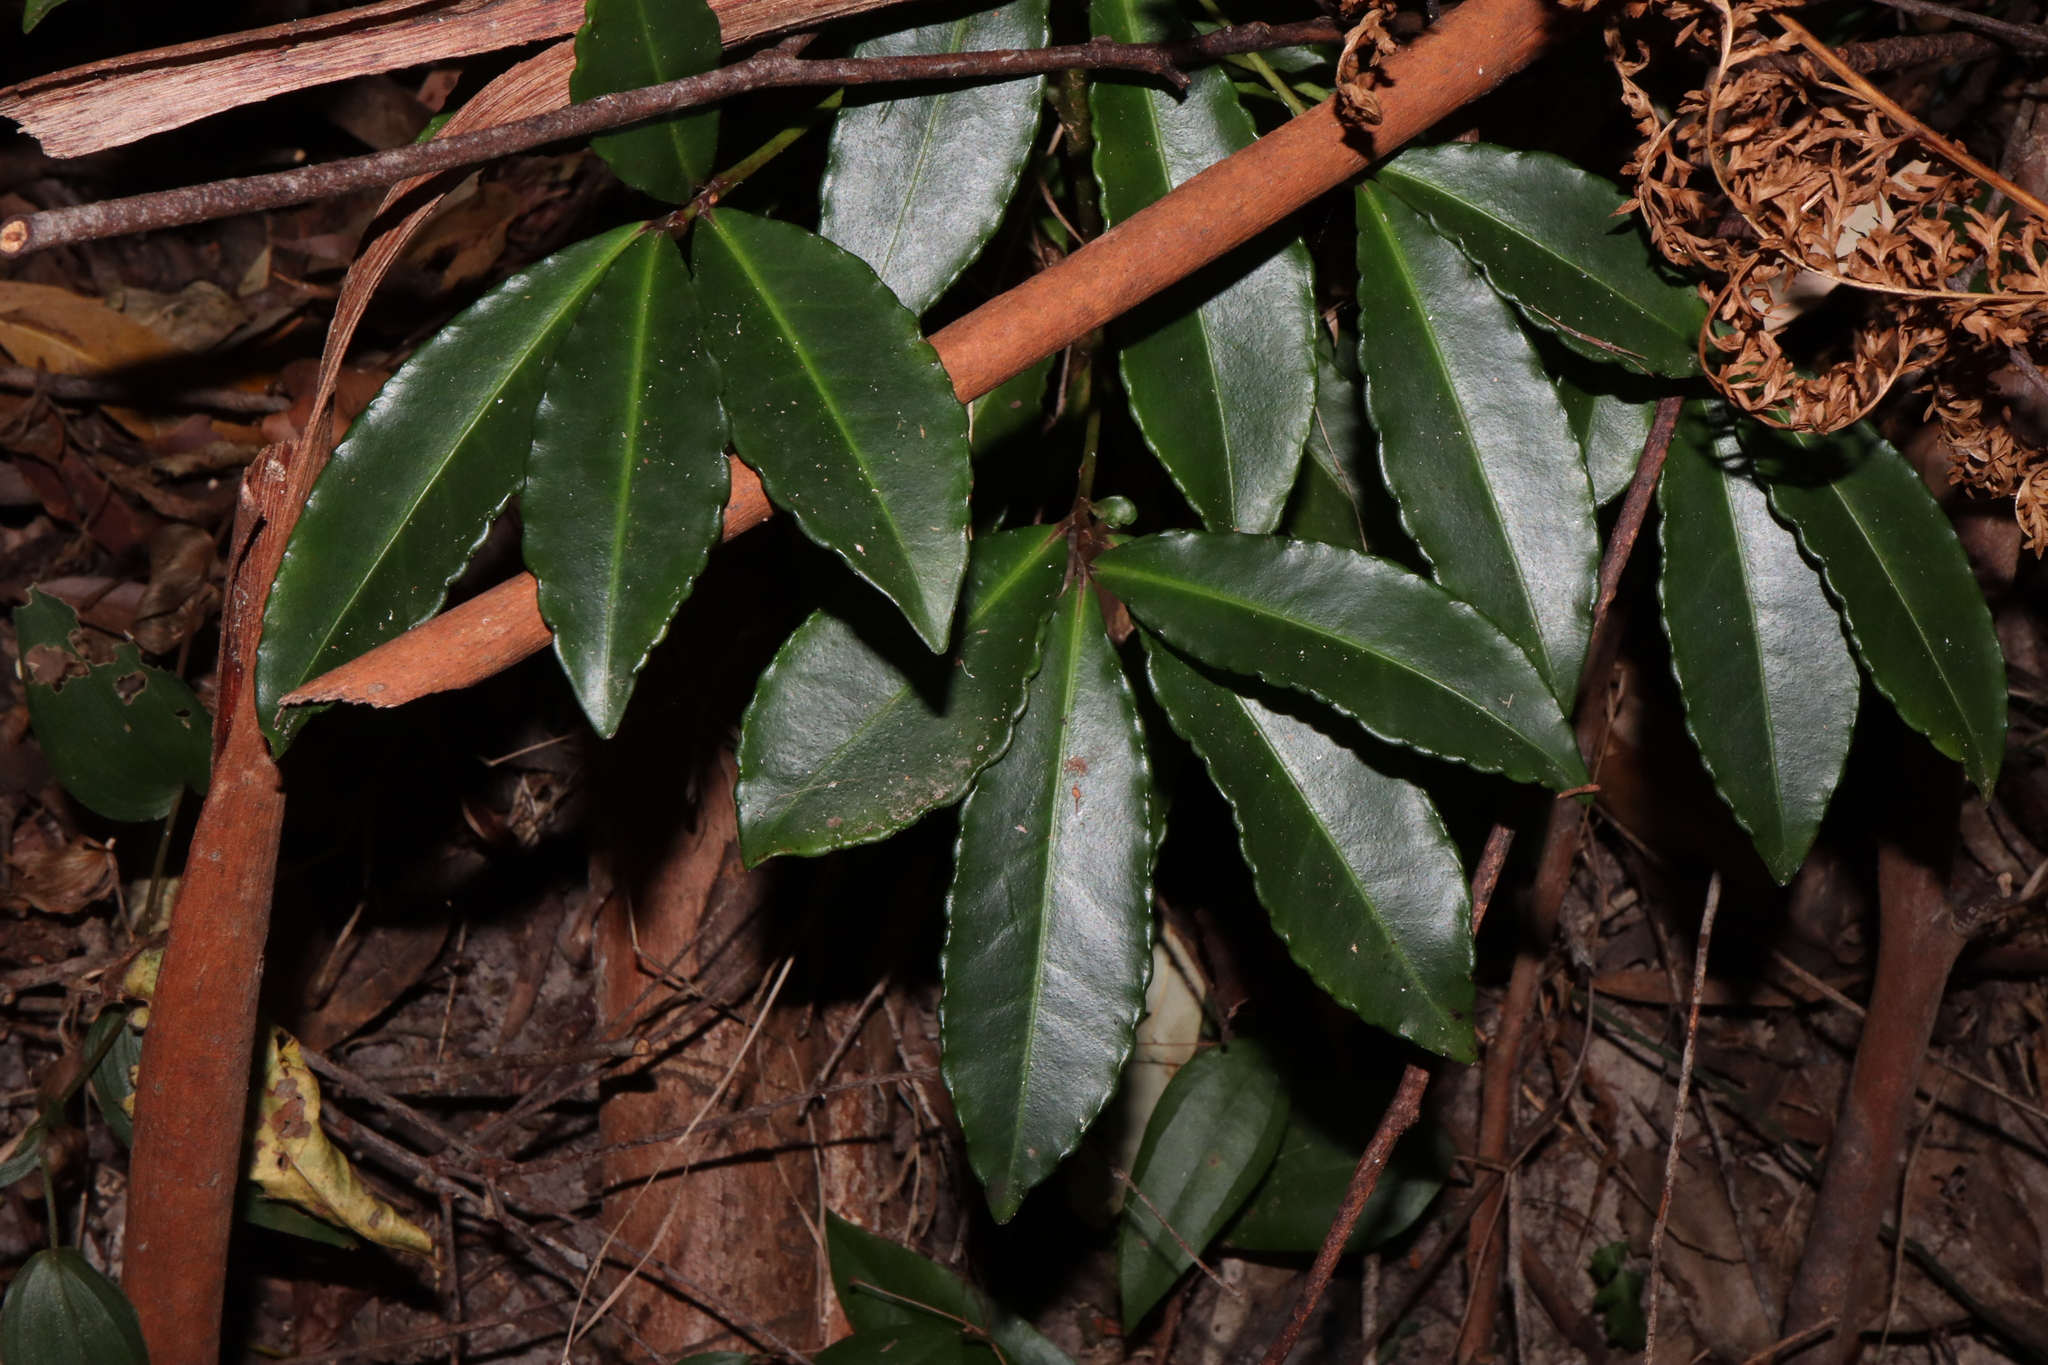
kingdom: Plantae
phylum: Tracheophyta
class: Magnoliopsida
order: Ericales
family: Primulaceae
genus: Ardisia
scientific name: Ardisia crenata
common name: Hen's eyes
